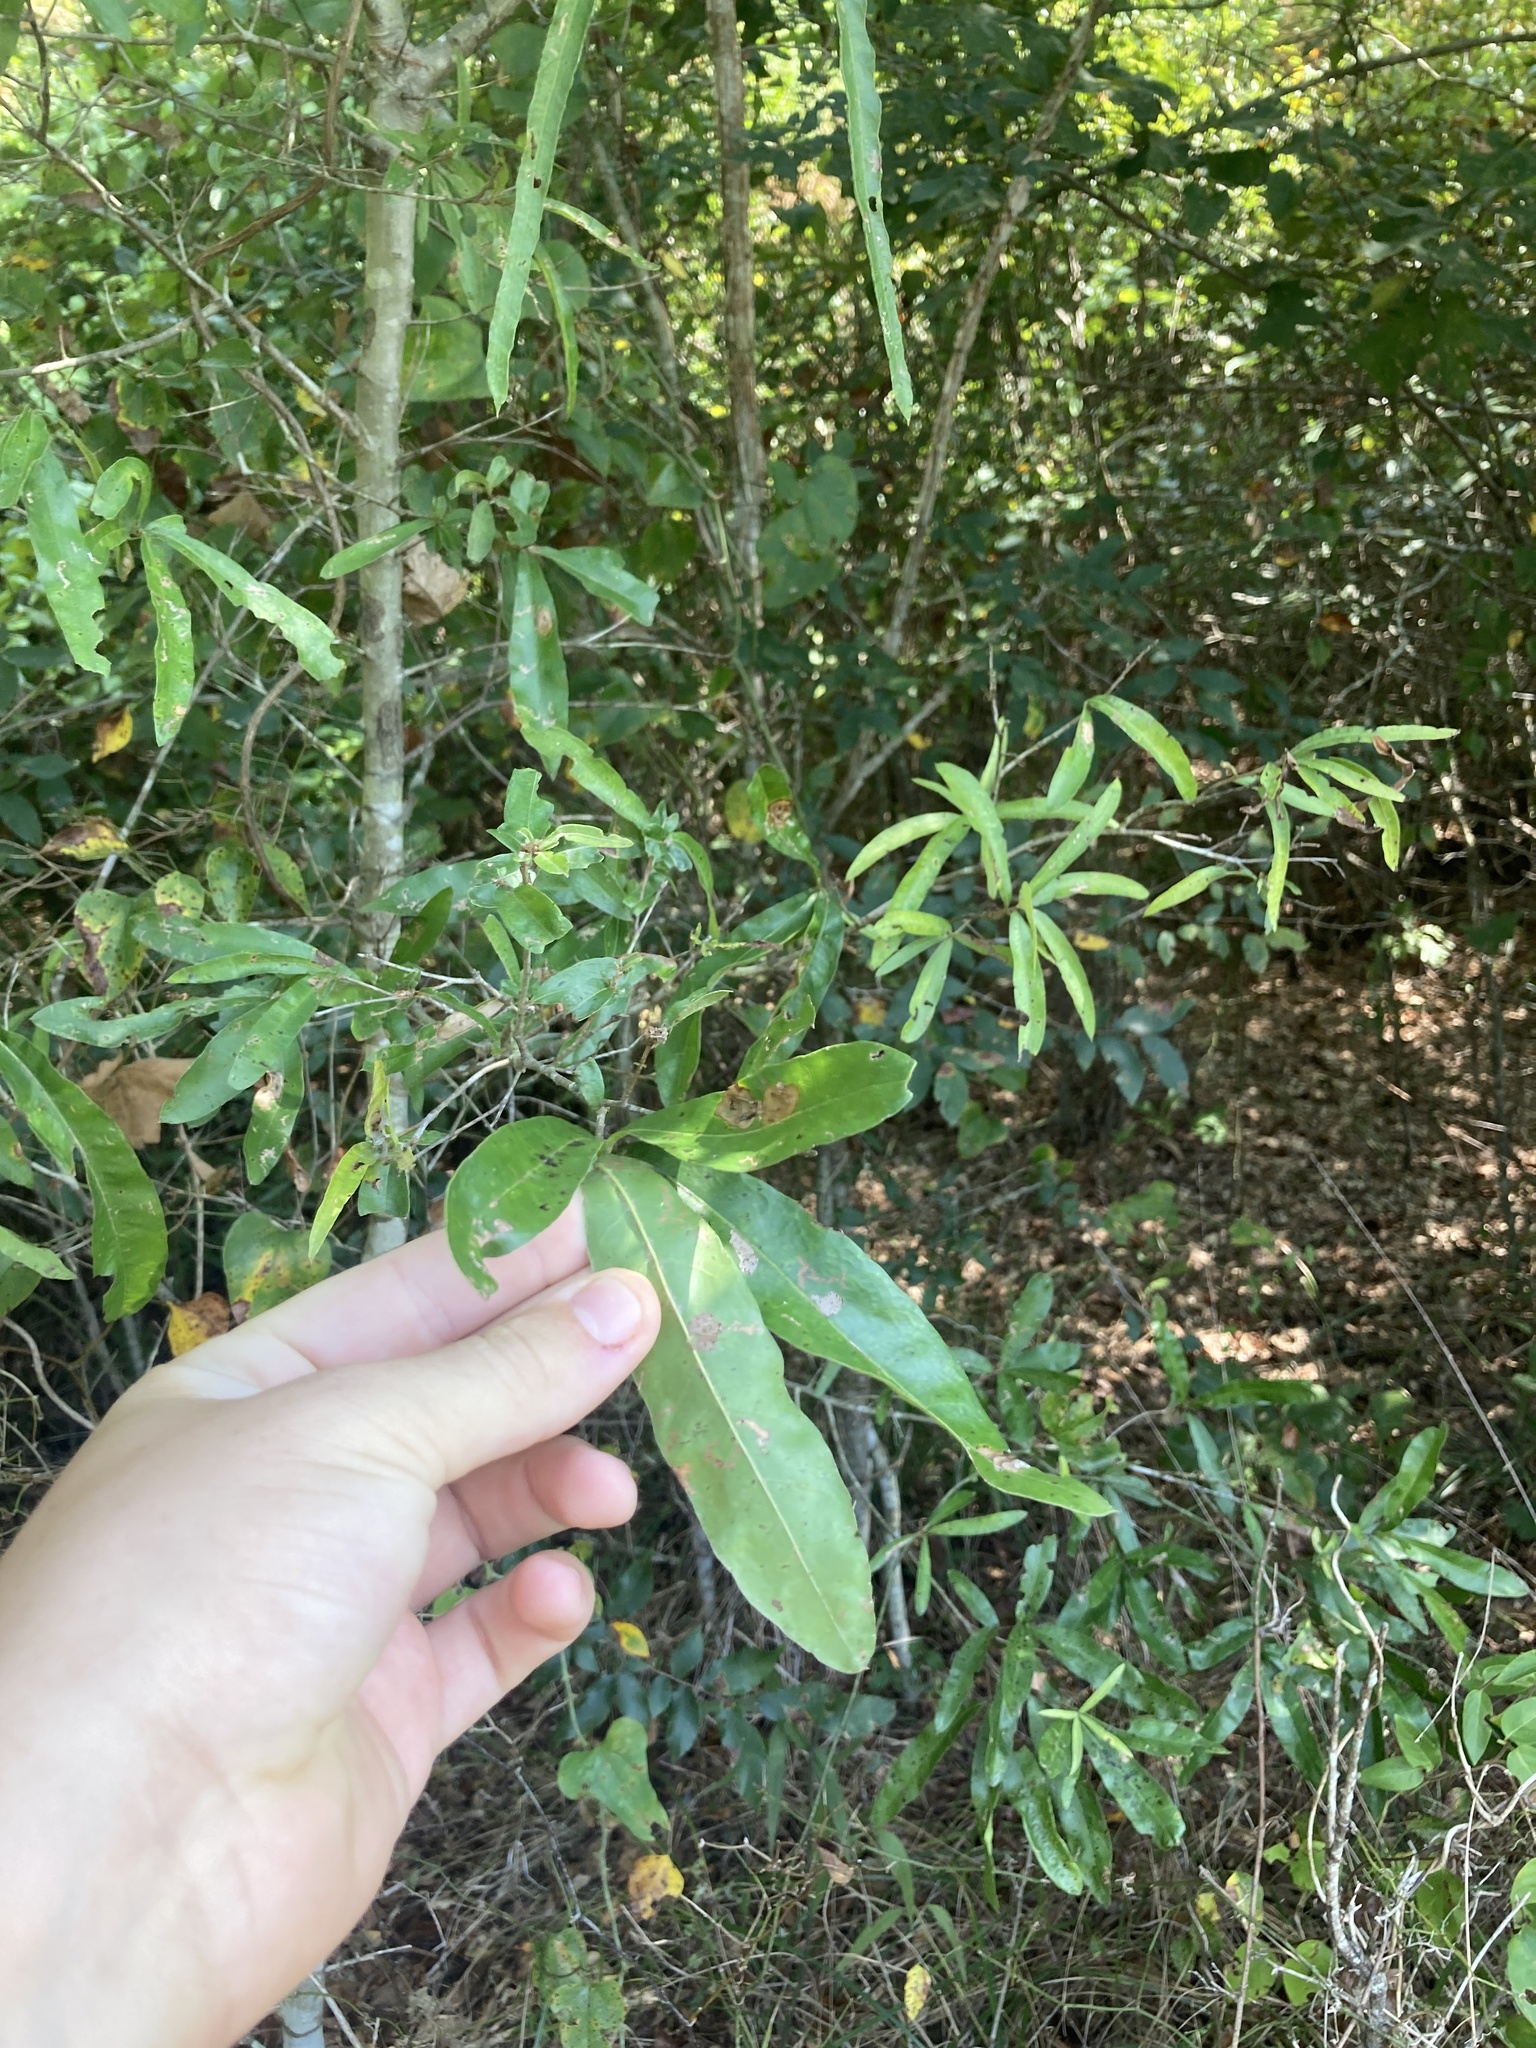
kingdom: Plantae
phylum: Tracheophyta
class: Magnoliopsida
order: Fagales
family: Fagaceae
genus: Quercus
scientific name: Quercus phellos
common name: Willow oak
